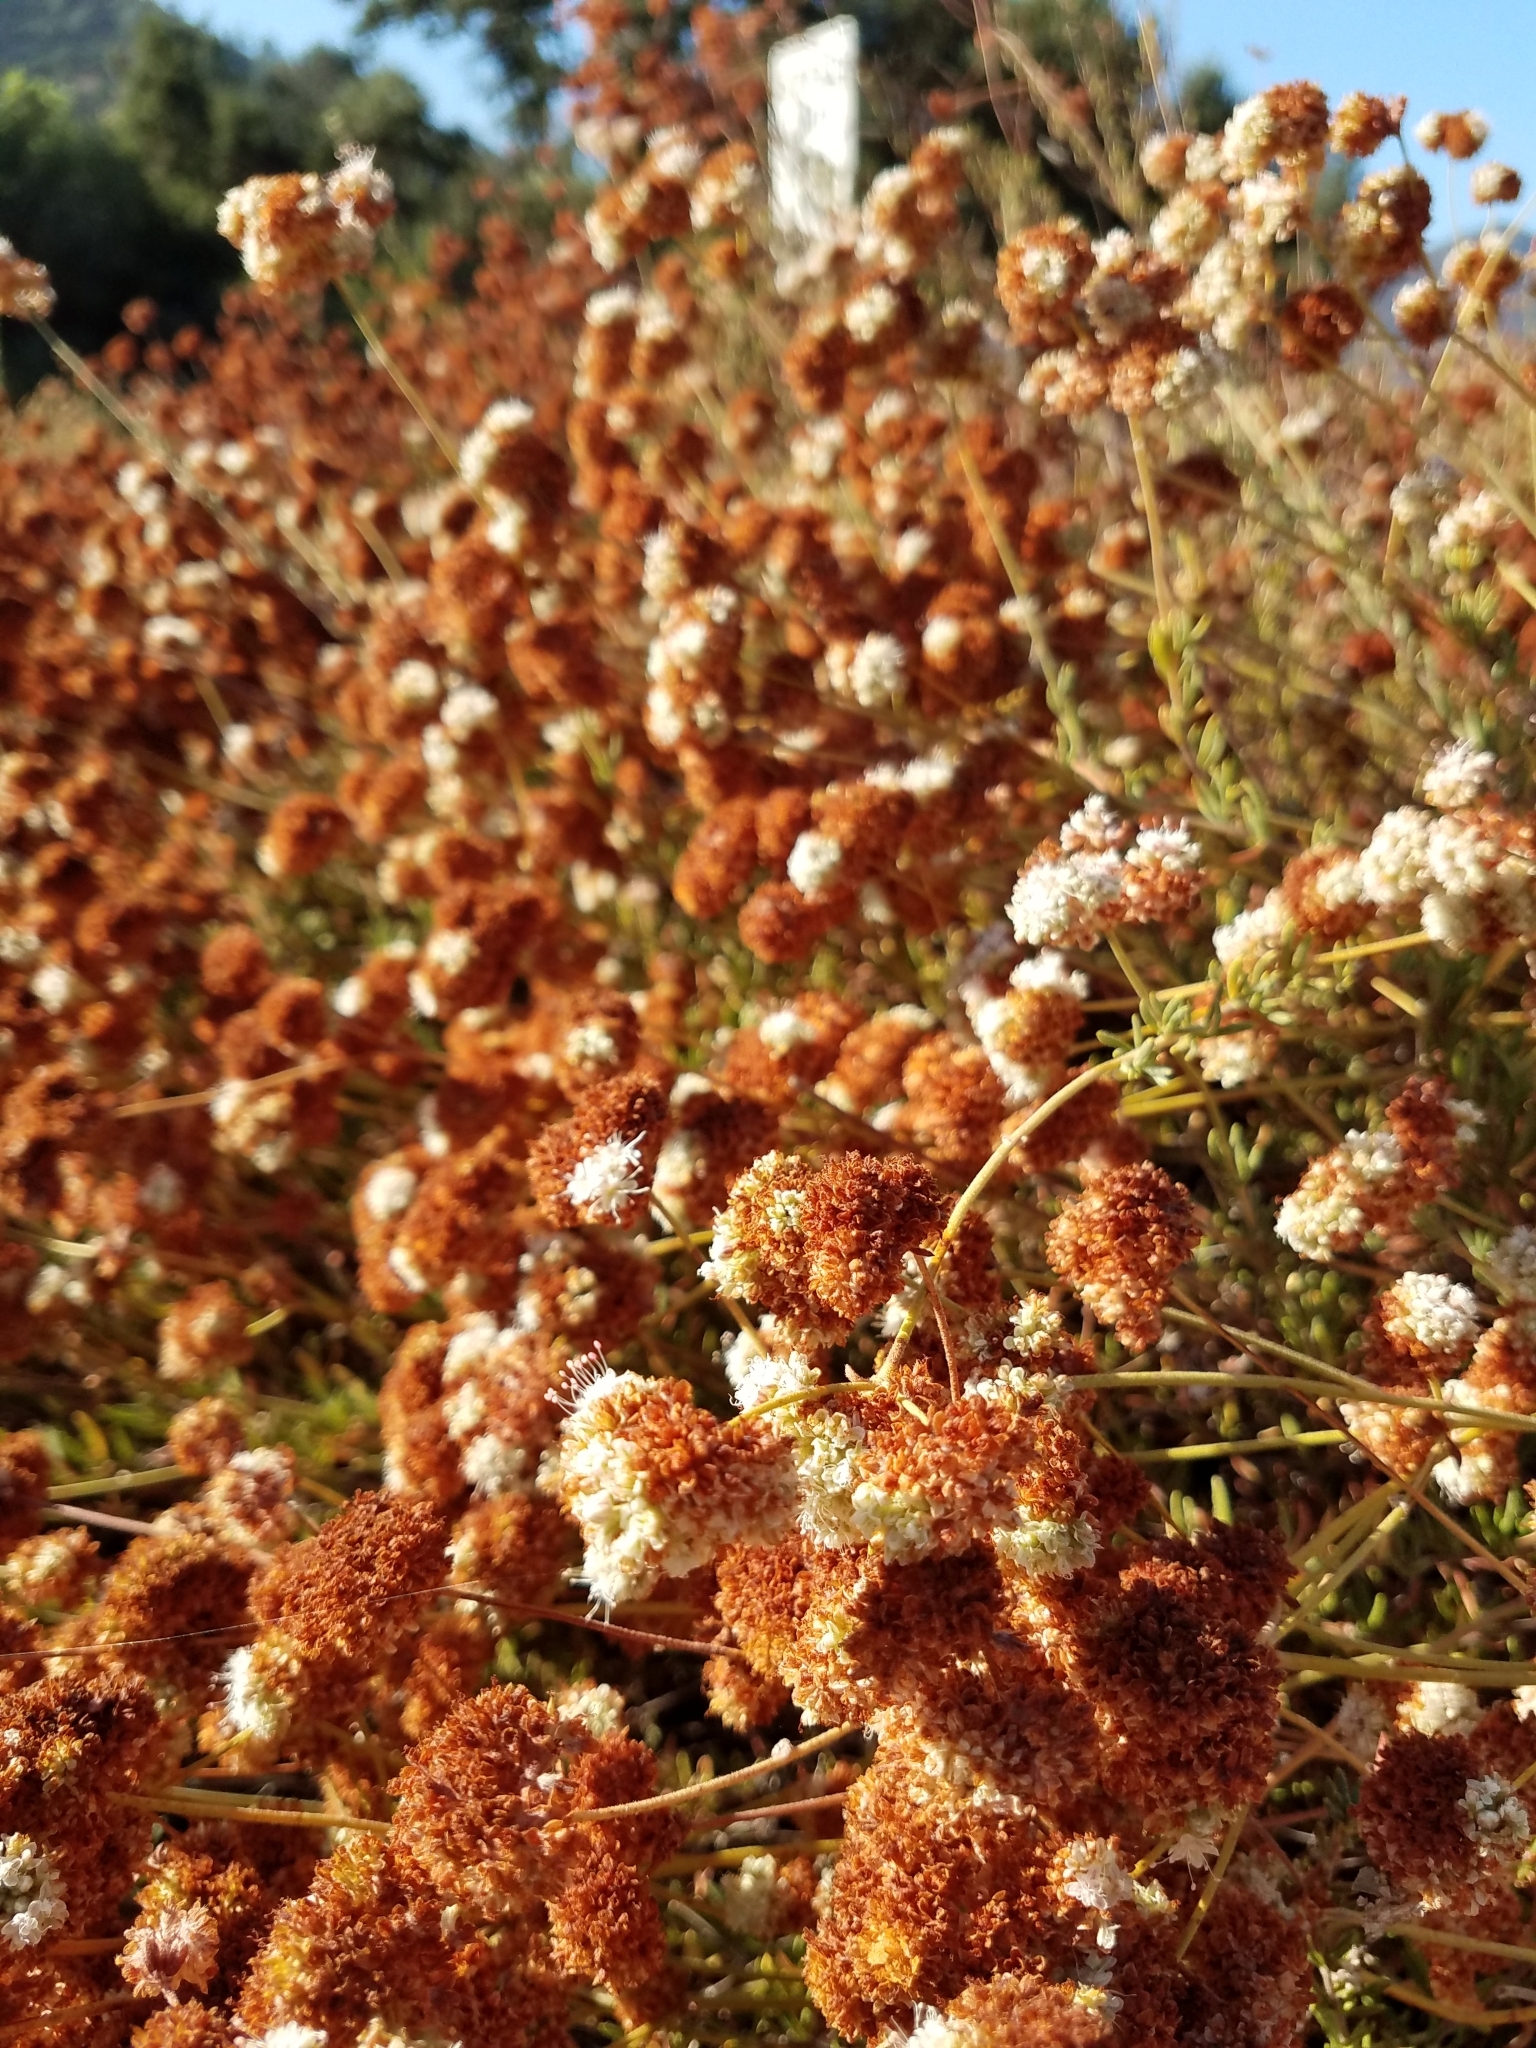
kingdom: Plantae
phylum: Tracheophyta
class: Magnoliopsida
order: Caryophyllales
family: Polygonaceae
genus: Eriogonum
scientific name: Eriogonum fasciculatum
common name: California wild buckwheat
